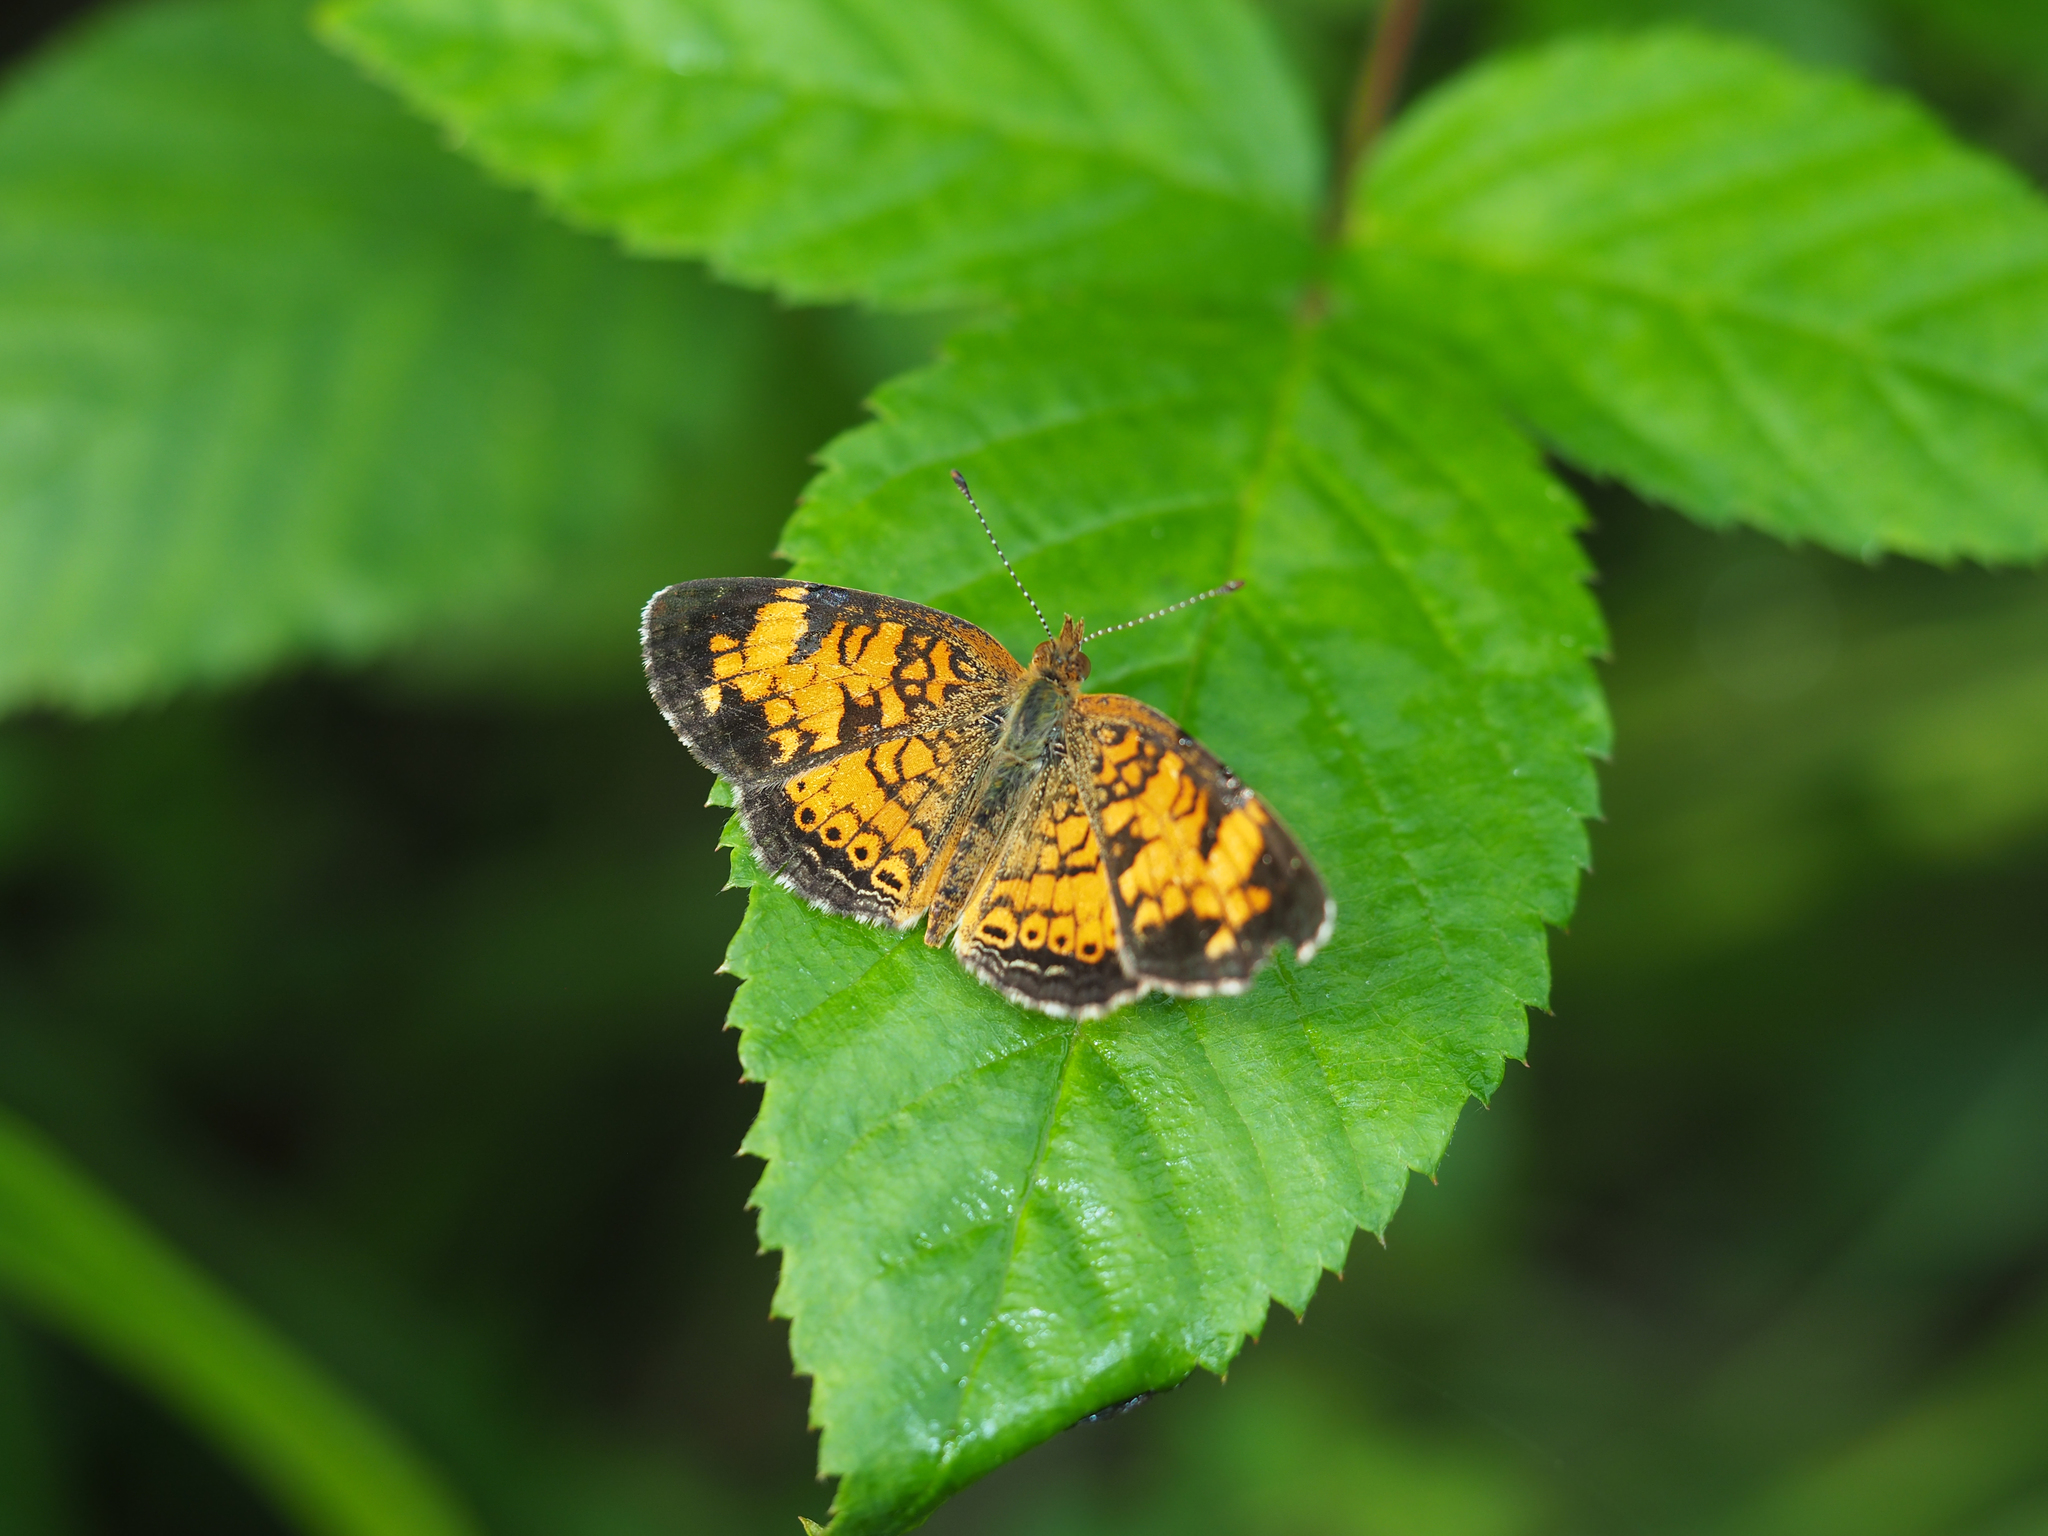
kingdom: Animalia
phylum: Arthropoda
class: Insecta
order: Lepidoptera
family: Nymphalidae
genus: Phyciodes
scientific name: Phyciodes tharos
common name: Pearl crescent
